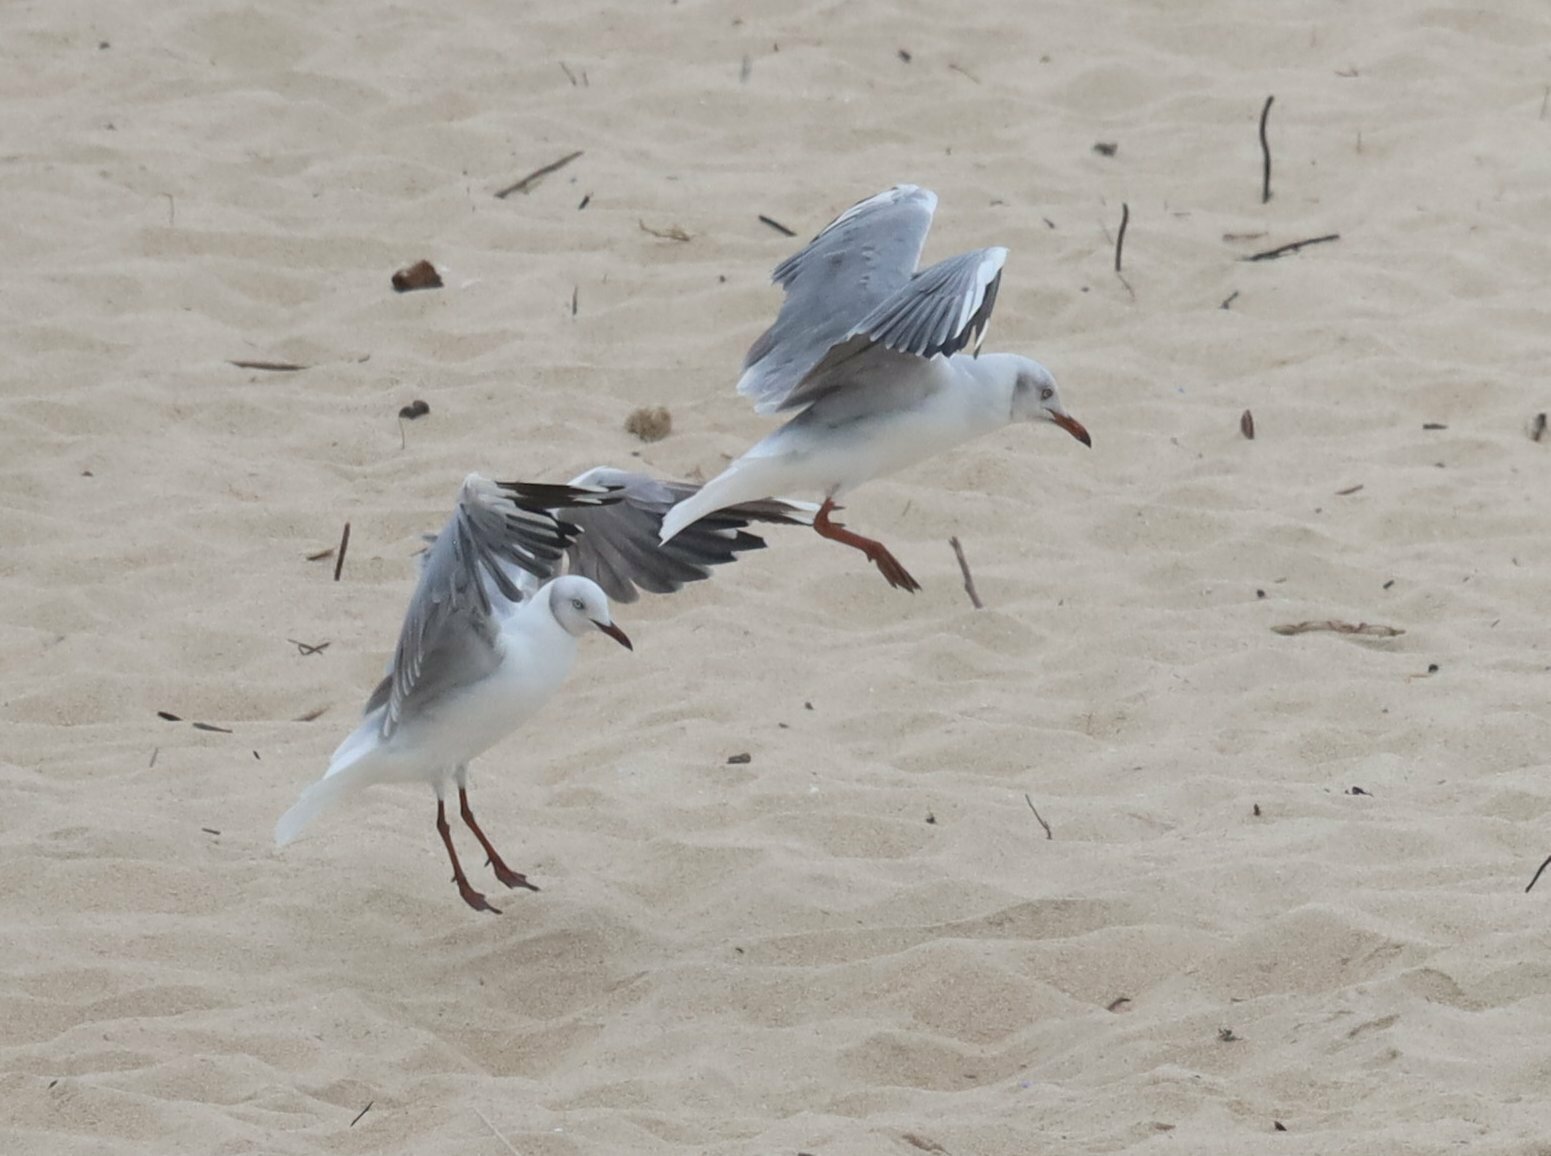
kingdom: Animalia
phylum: Chordata
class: Aves
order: Charadriiformes
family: Laridae
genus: Chroicocephalus
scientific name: Chroicocephalus cirrocephalus
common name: Grey-headed gull
